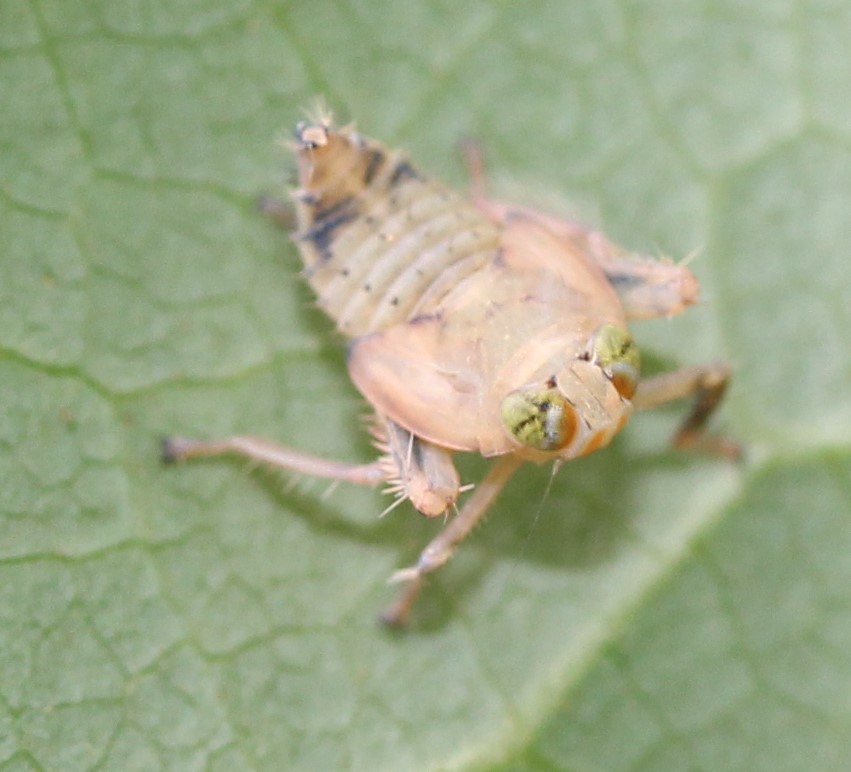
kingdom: Animalia
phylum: Arthropoda
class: Insecta
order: Hemiptera
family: Cicadellidae
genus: Jikradia
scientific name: Jikradia olitoria
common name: Coppery leafhopper
